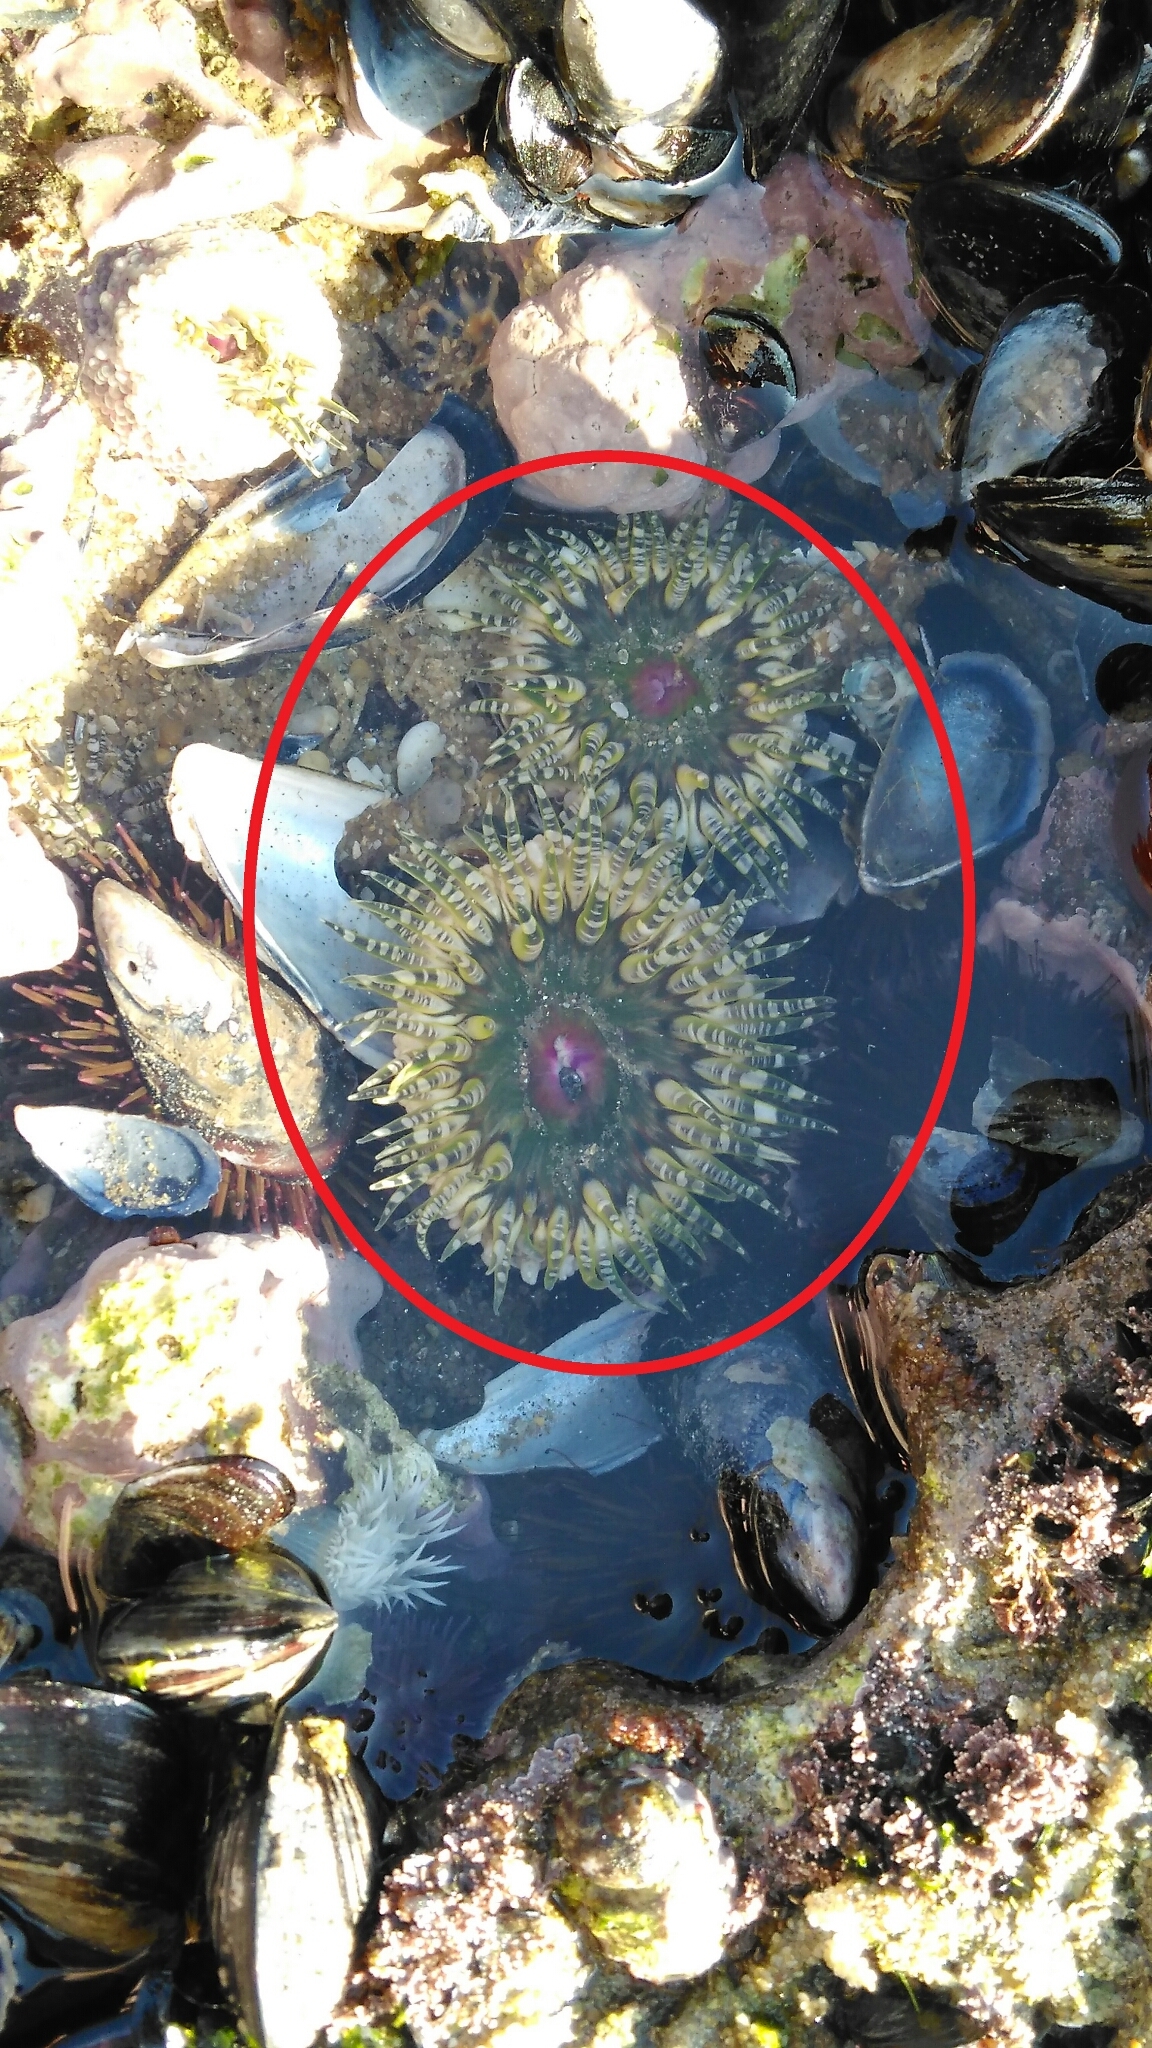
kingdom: Animalia
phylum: Cnidaria
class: Anthozoa
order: Actiniaria
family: Actiniidae
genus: Bunodactis
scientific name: Bunodactis verrucosa
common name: Gem anemone
